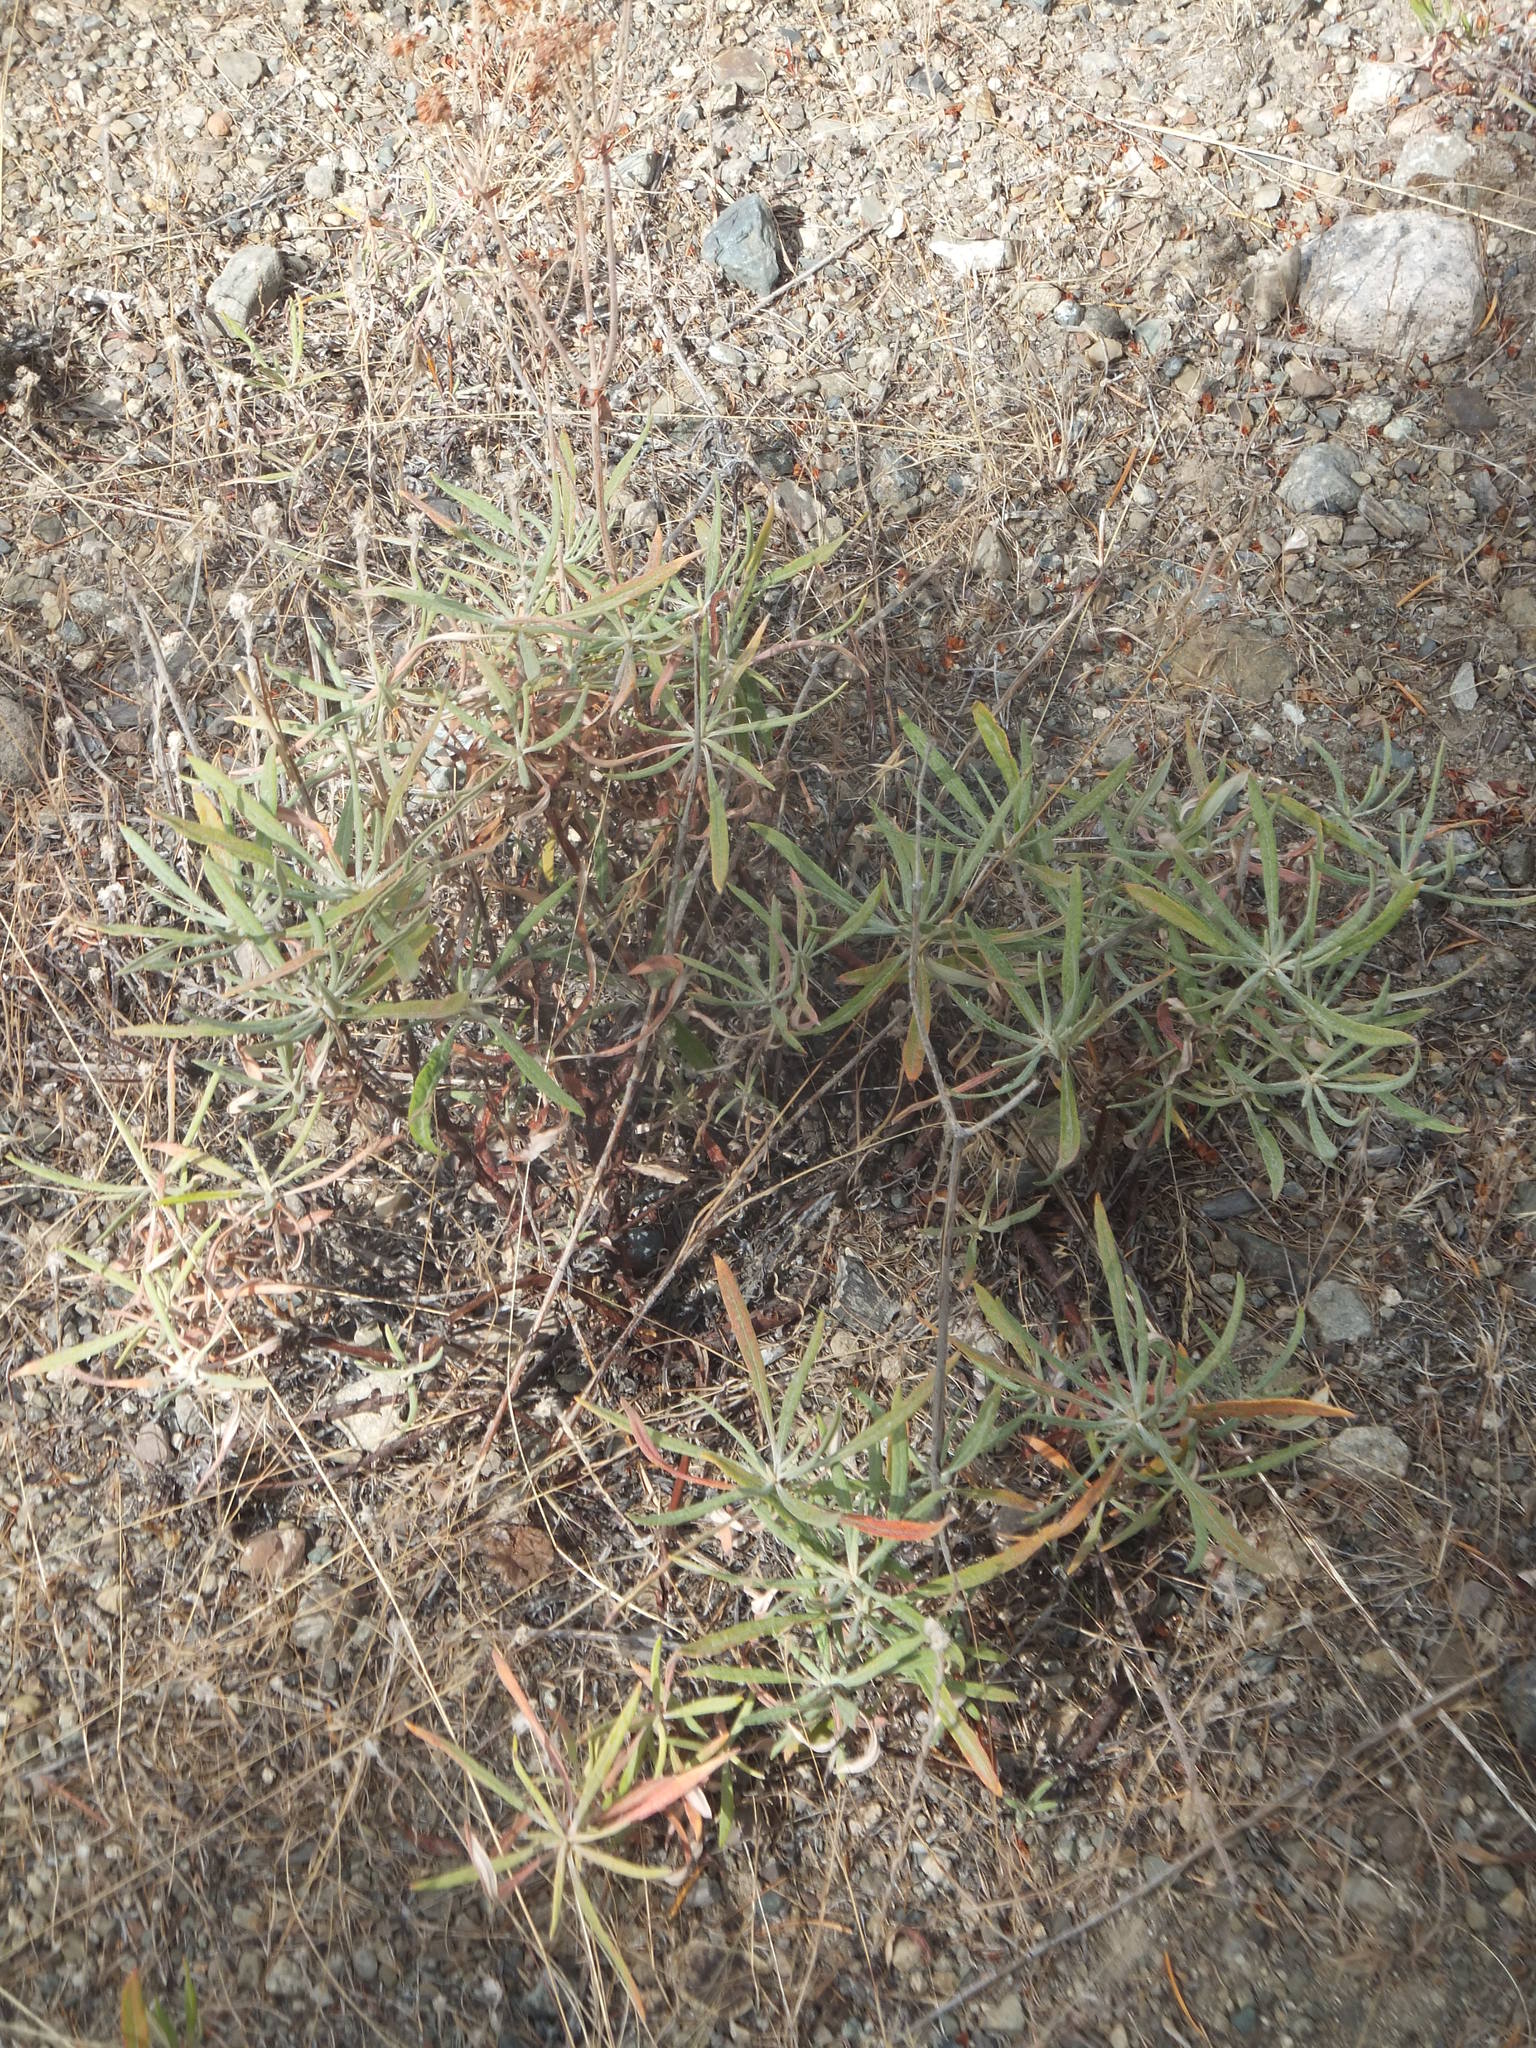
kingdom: Plantae
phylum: Tracheophyta
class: Magnoliopsida
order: Caryophyllales
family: Polygonaceae
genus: Eriogonum
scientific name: Eriogonum heracleoides
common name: Wyeth's buckwheat
